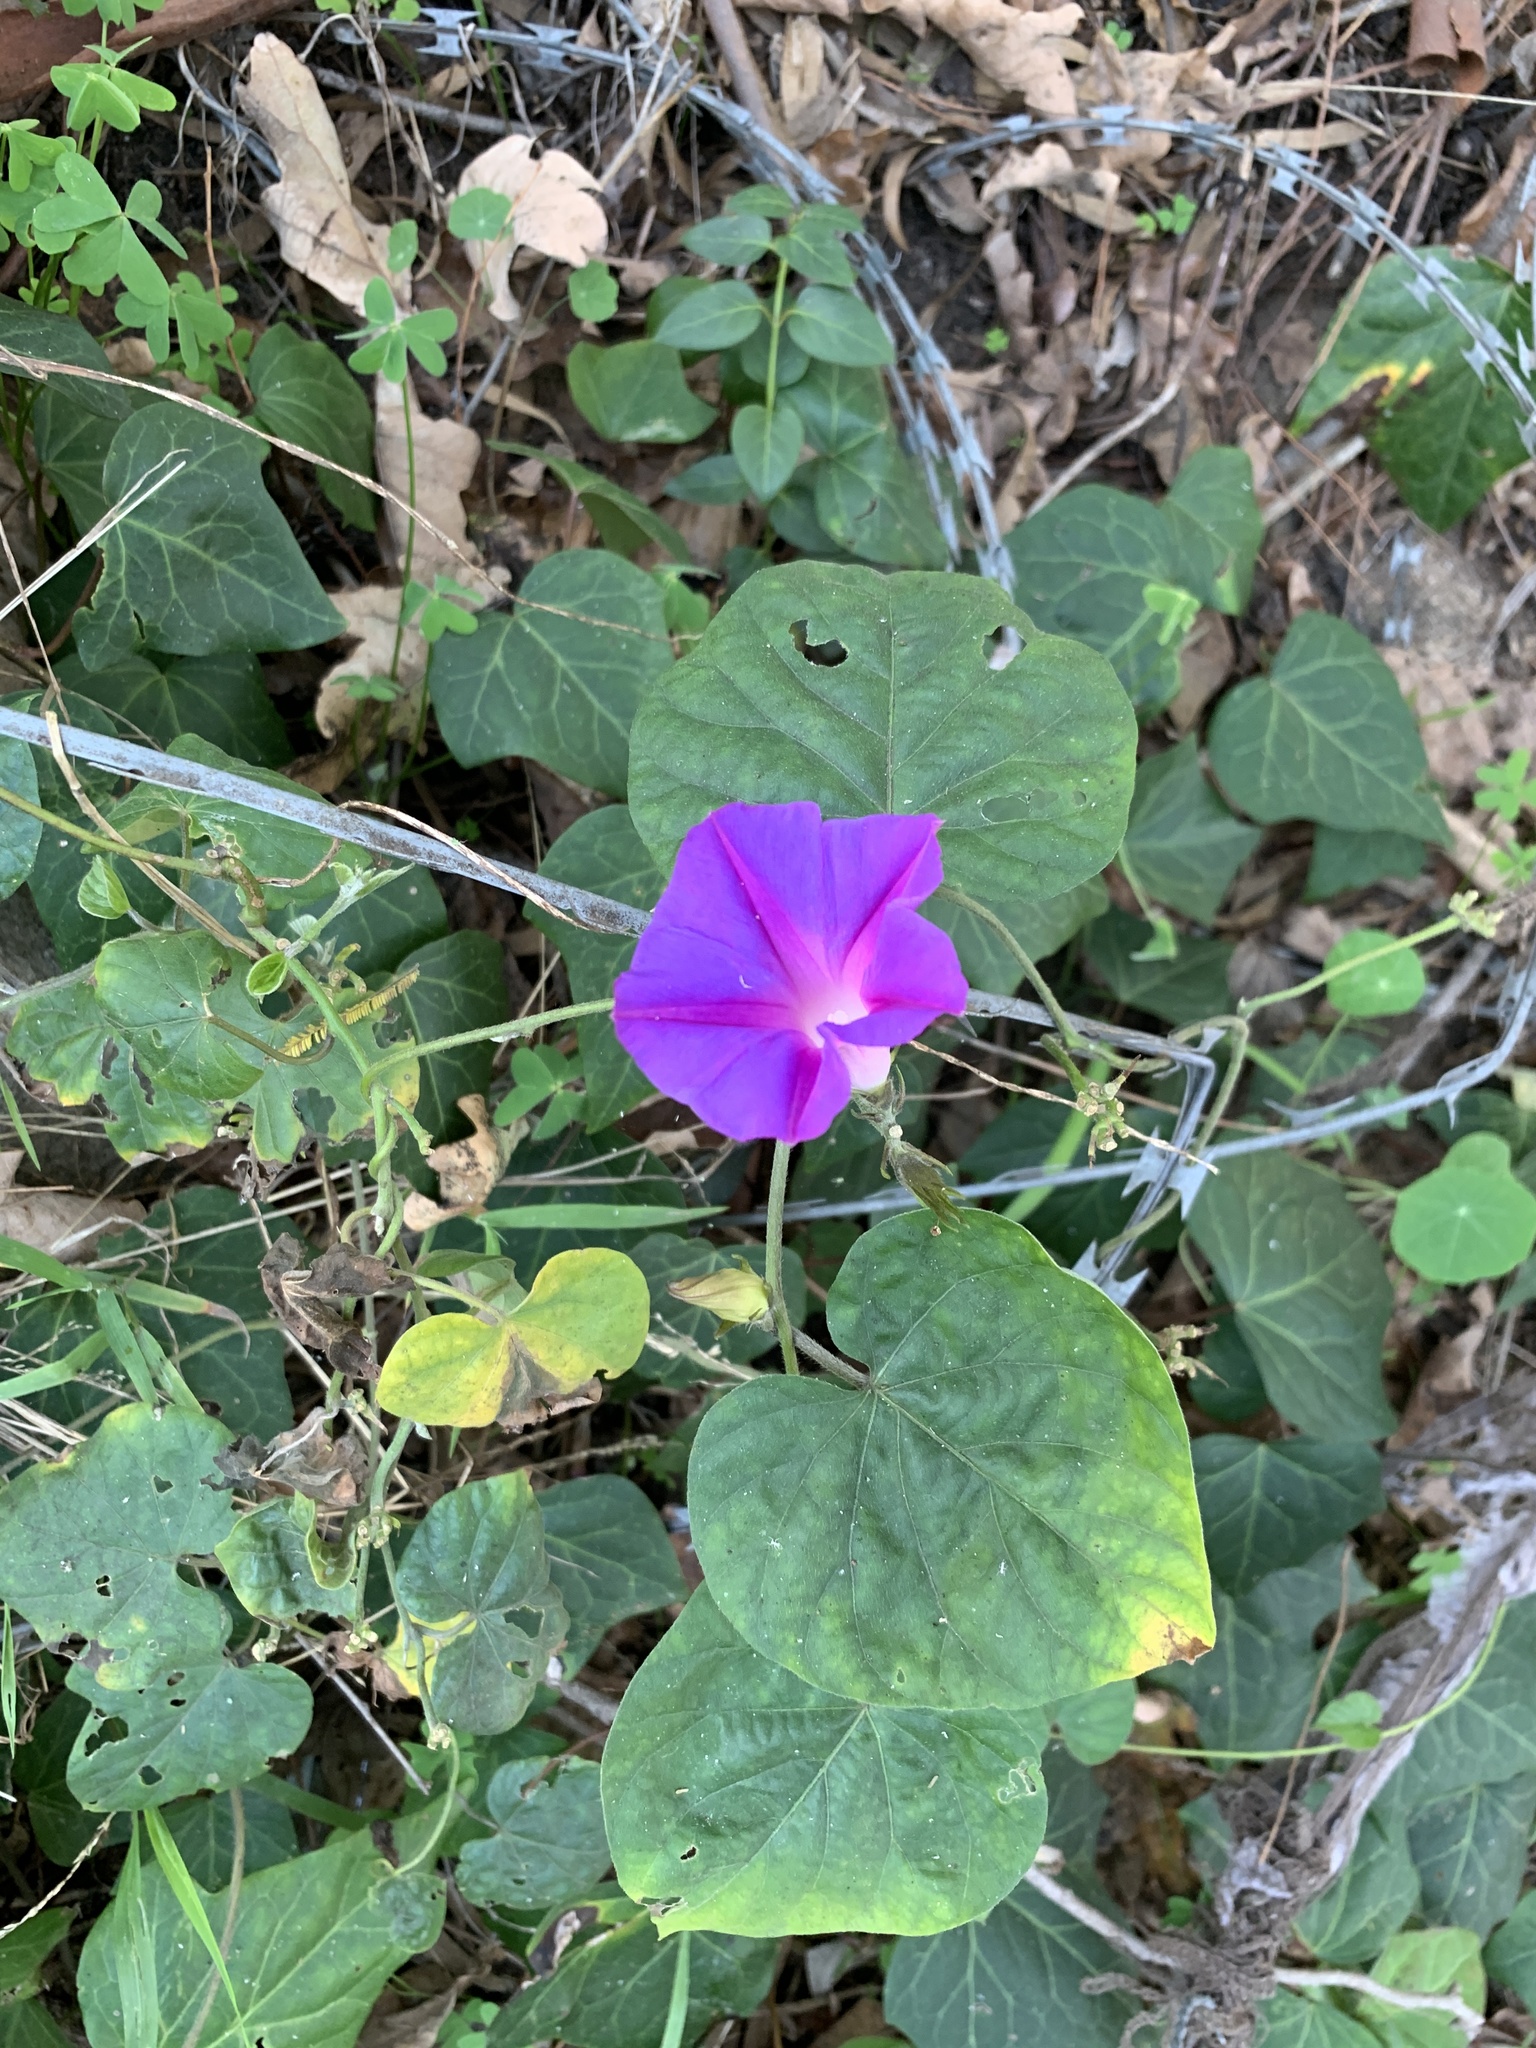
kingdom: Plantae
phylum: Tracheophyta
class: Magnoliopsida
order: Solanales
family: Convolvulaceae
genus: Ipomoea
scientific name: Ipomoea indica
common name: Blue dawnflower
